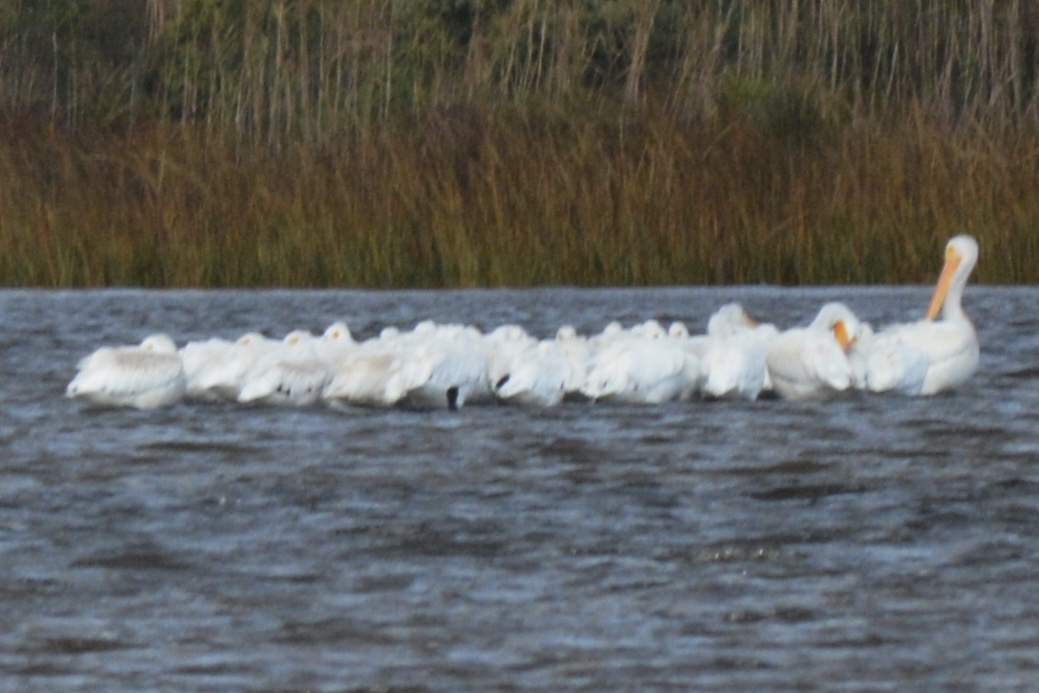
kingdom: Animalia
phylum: Chordata
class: Aves
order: Pelecaniformes
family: Pelecanidae
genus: Pelecanus
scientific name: Pelecanus erythrorhynchos
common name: American white pelican
